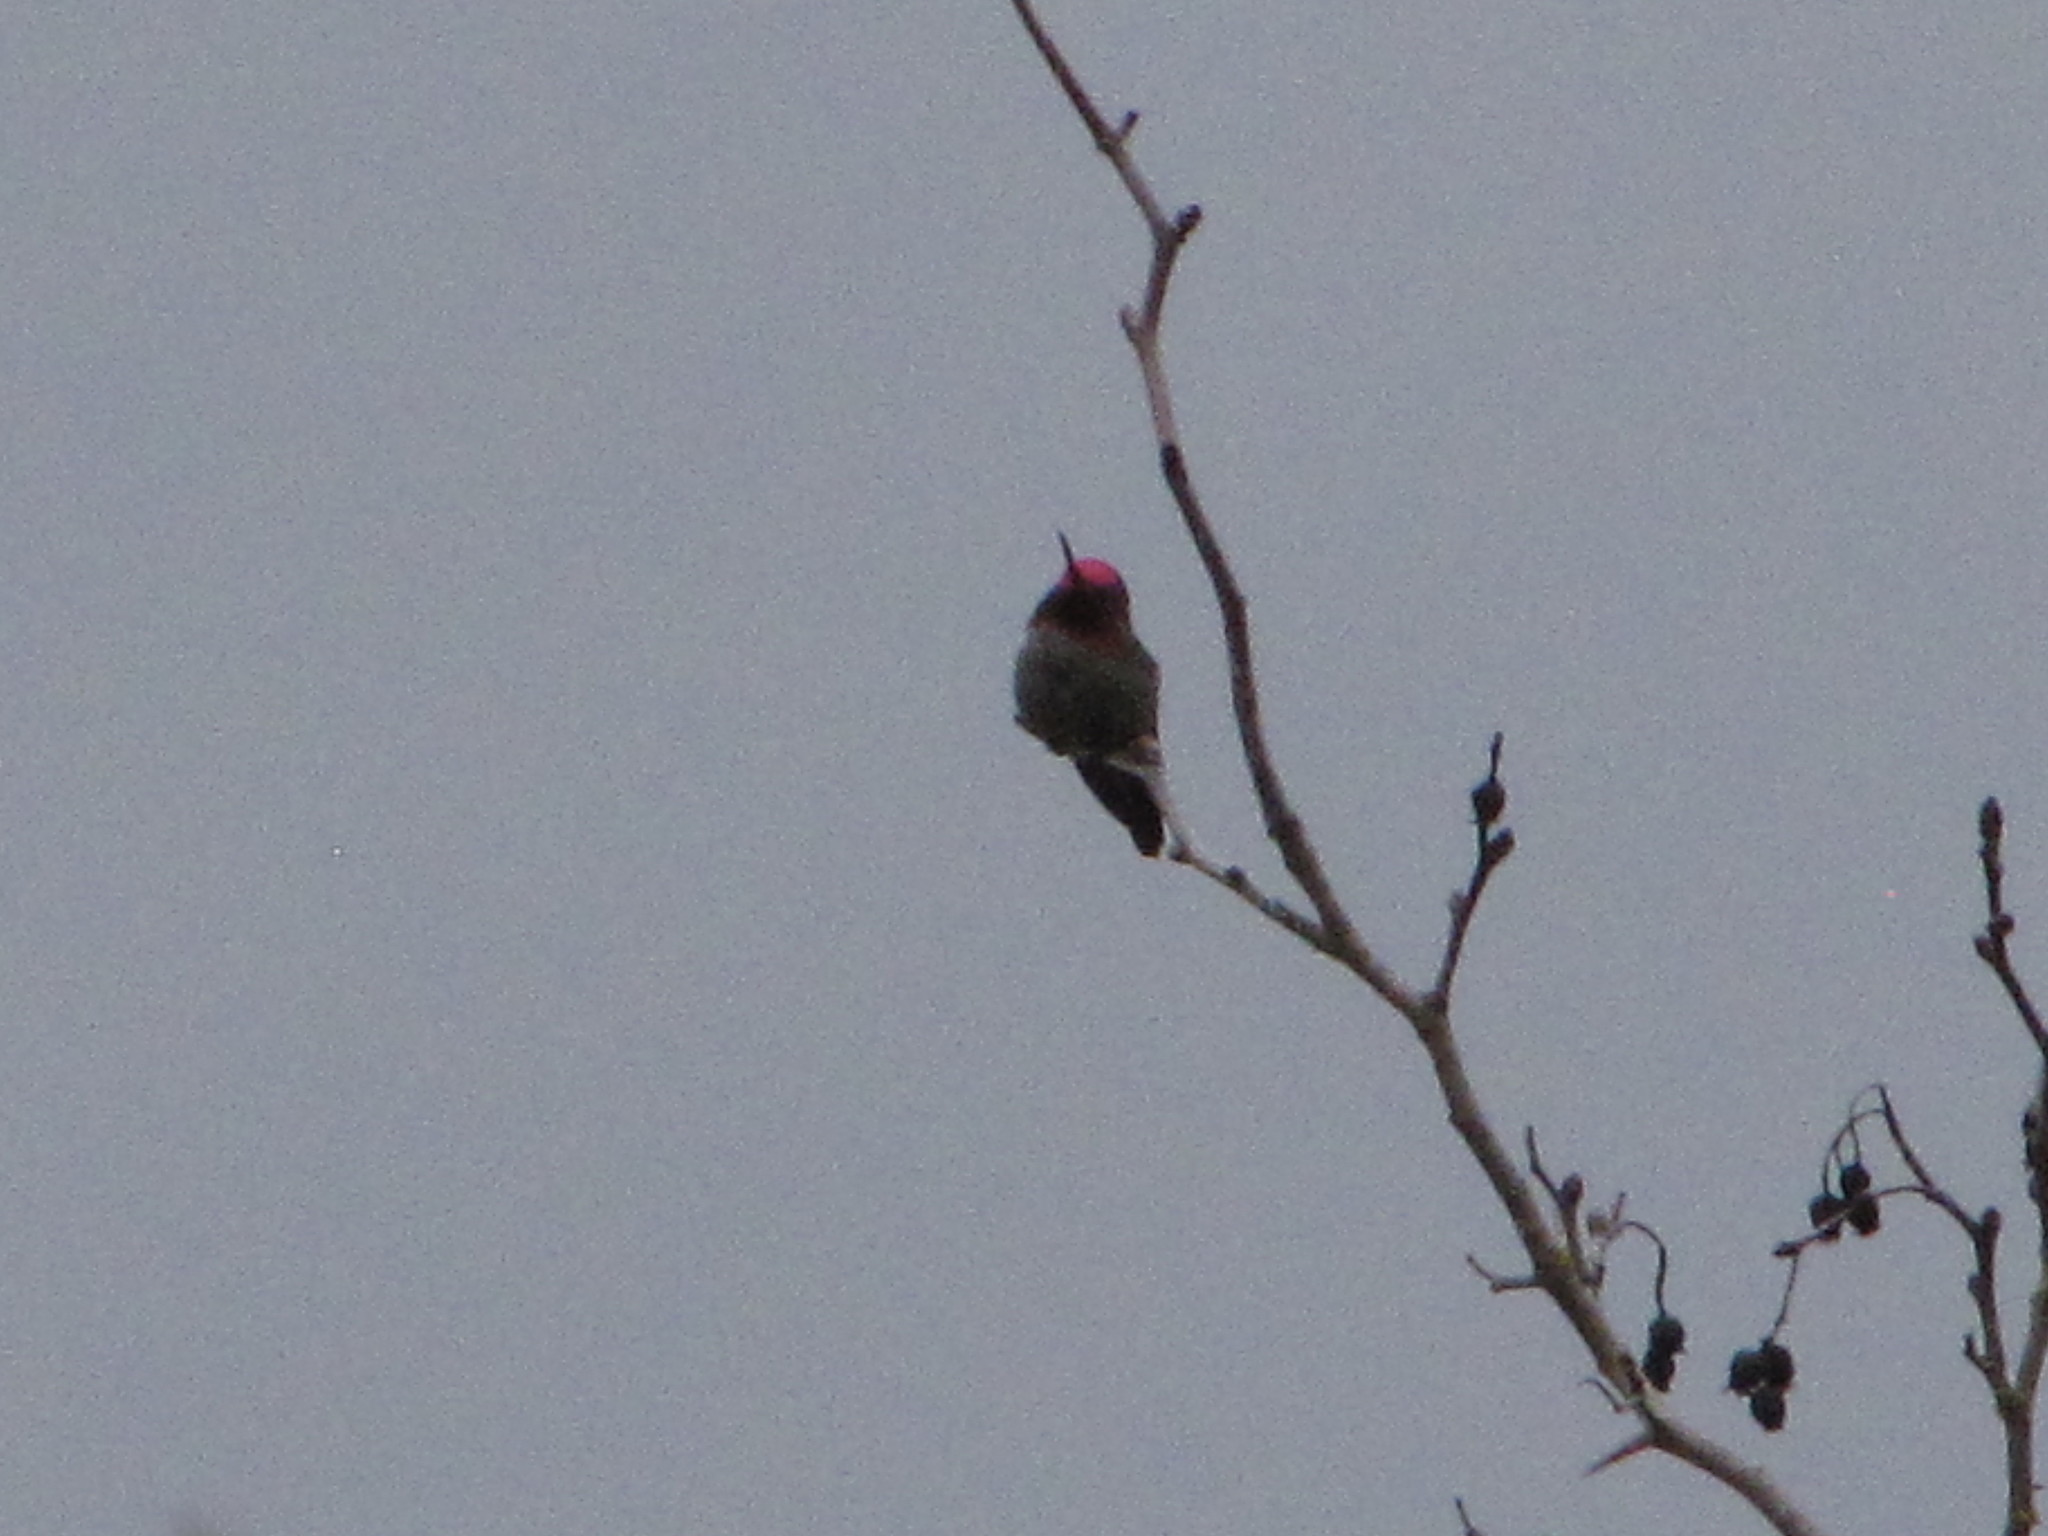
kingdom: Animalia
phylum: Chordata
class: Aves
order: Apodiformes
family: Trochilidae
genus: Calypte
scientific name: Calypte anna
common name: Anna's hummingbird
